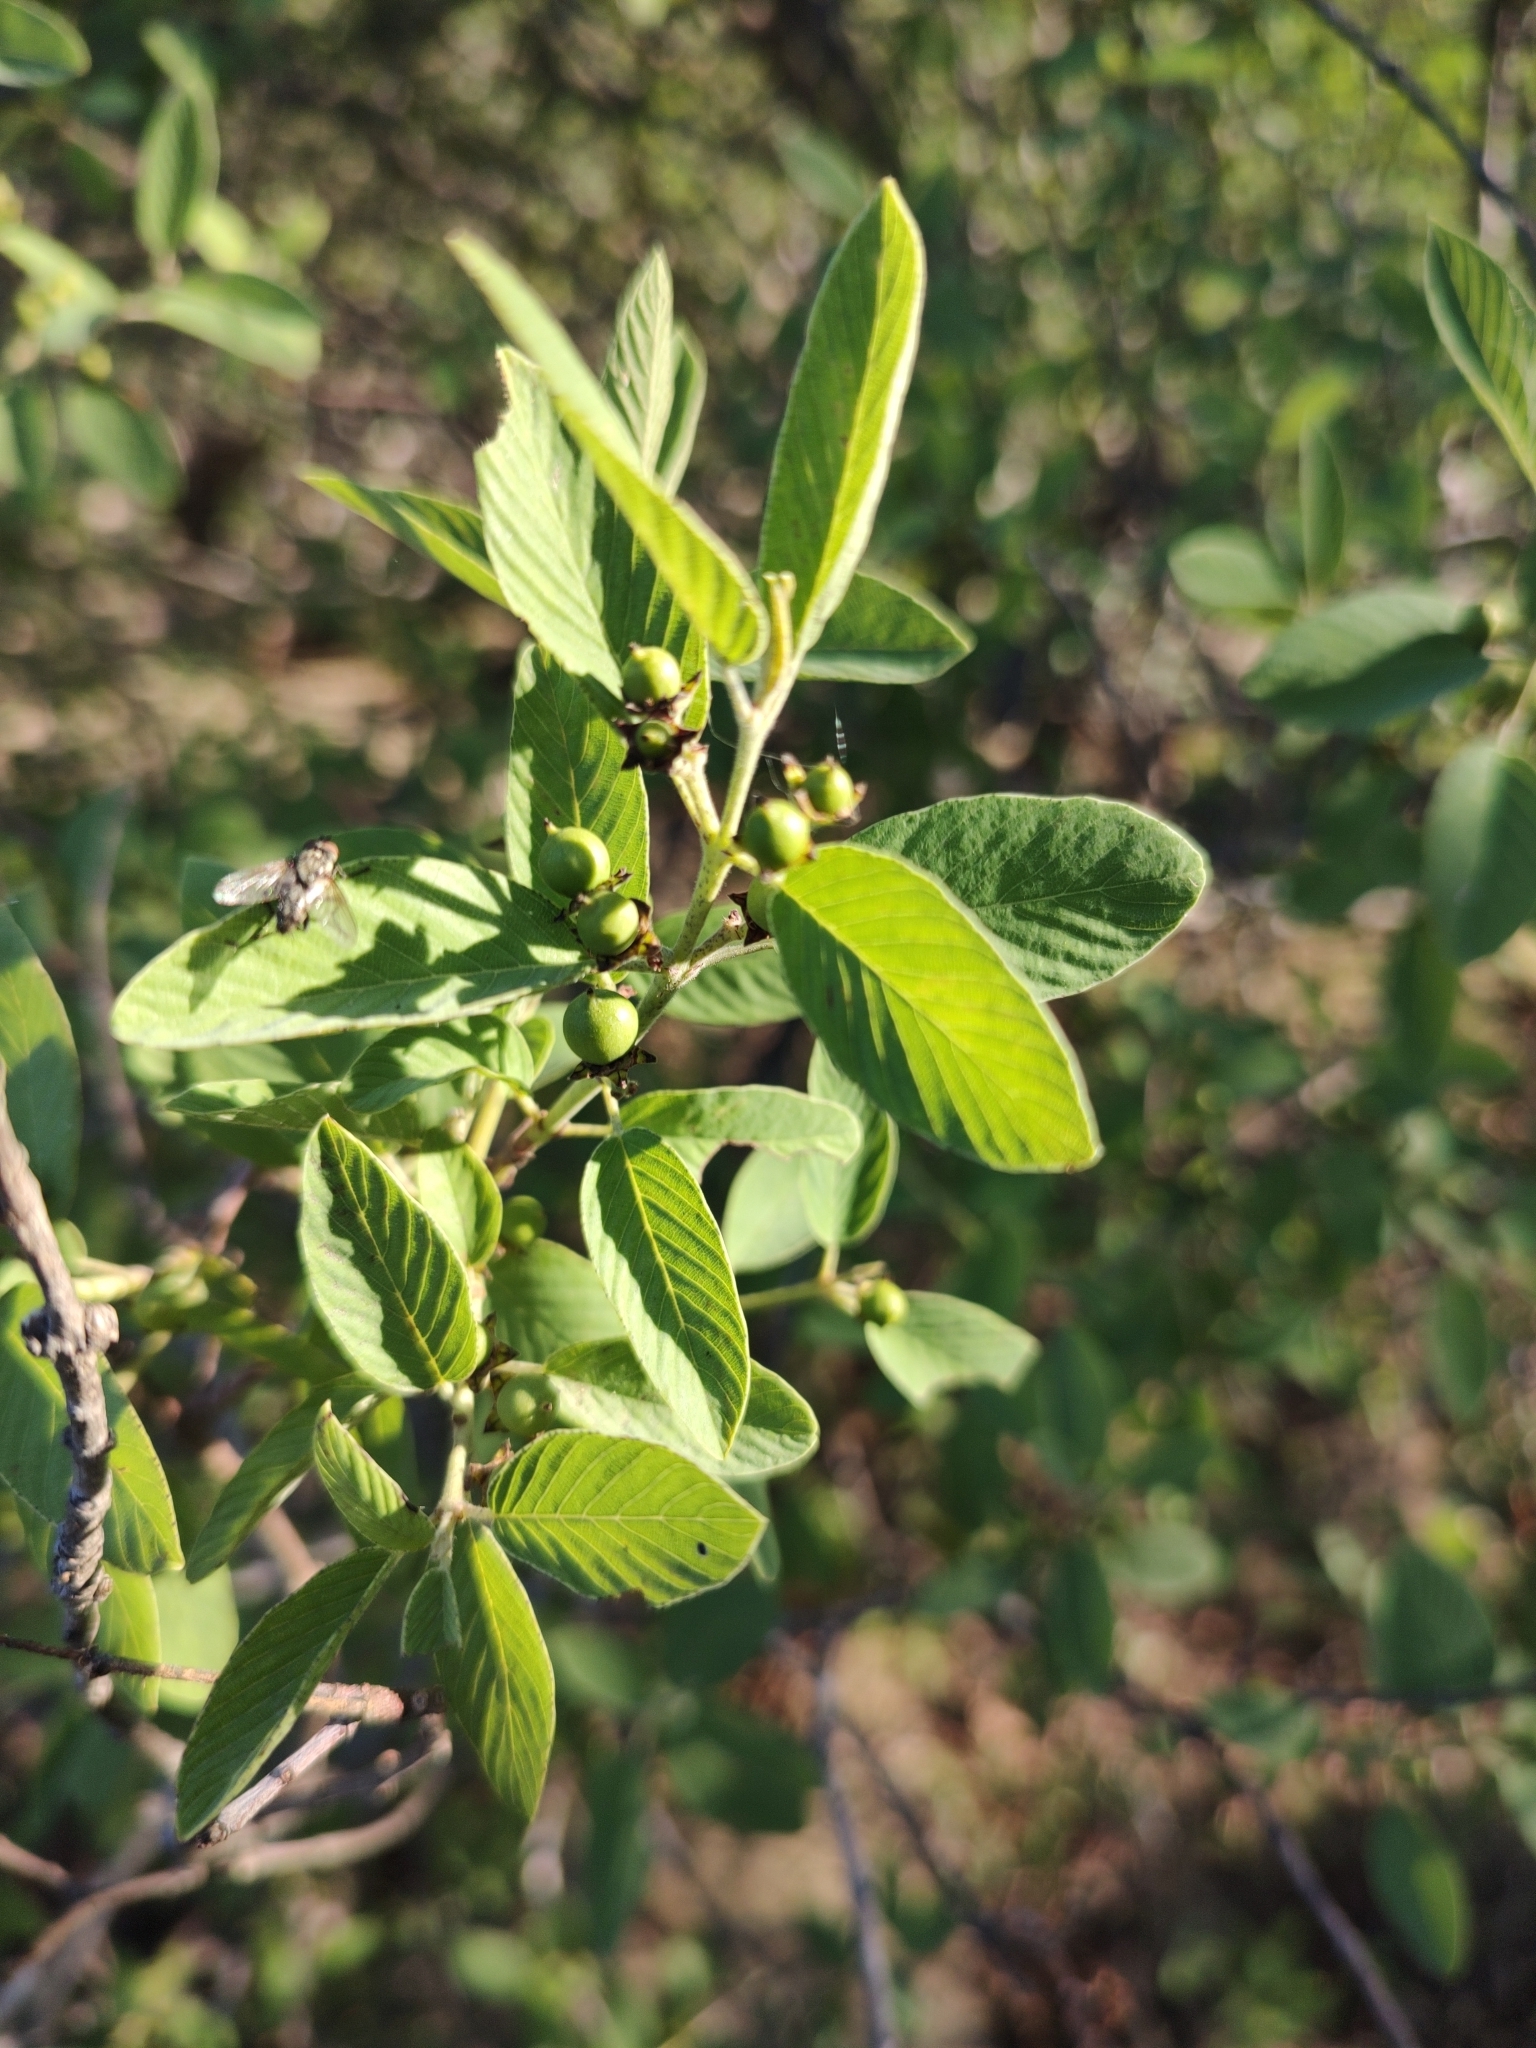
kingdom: Plantae
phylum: Tracheophyta
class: Magnoliopsida
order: Rosales
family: Rhamnaceae
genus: Karwinskia
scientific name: Karwinskia humboldtiana
